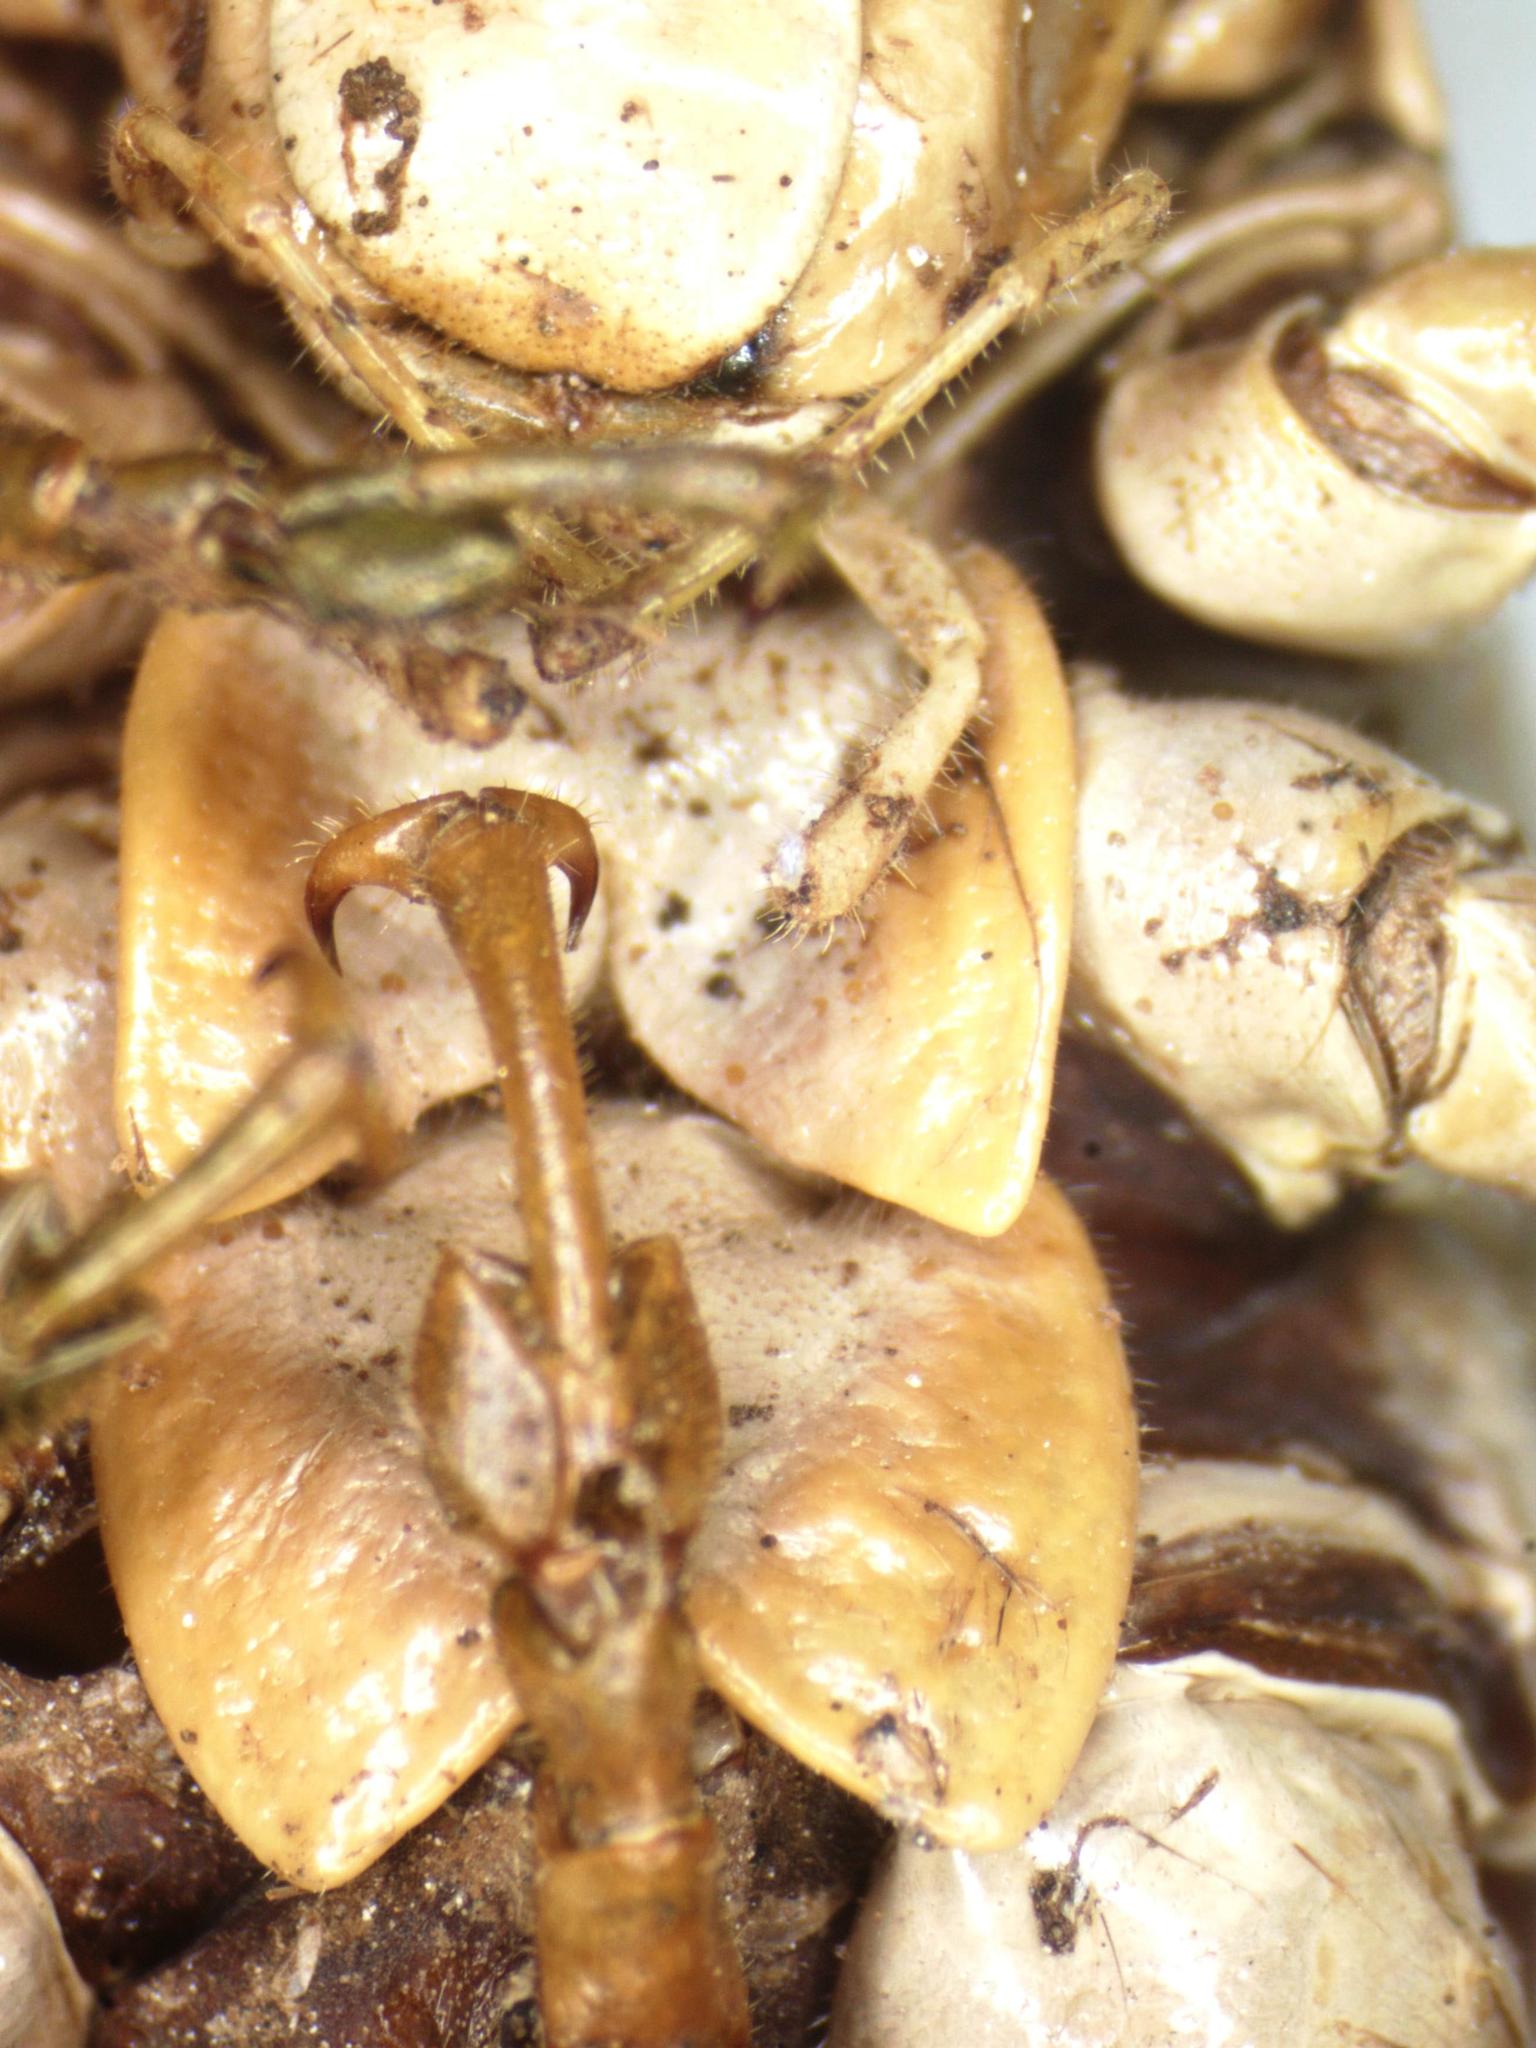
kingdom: Animalia
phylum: Arthropoda
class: Insecta
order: Orthoptera
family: Tettigoniidae
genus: Philophyllia
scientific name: Philophyllia guttulata
